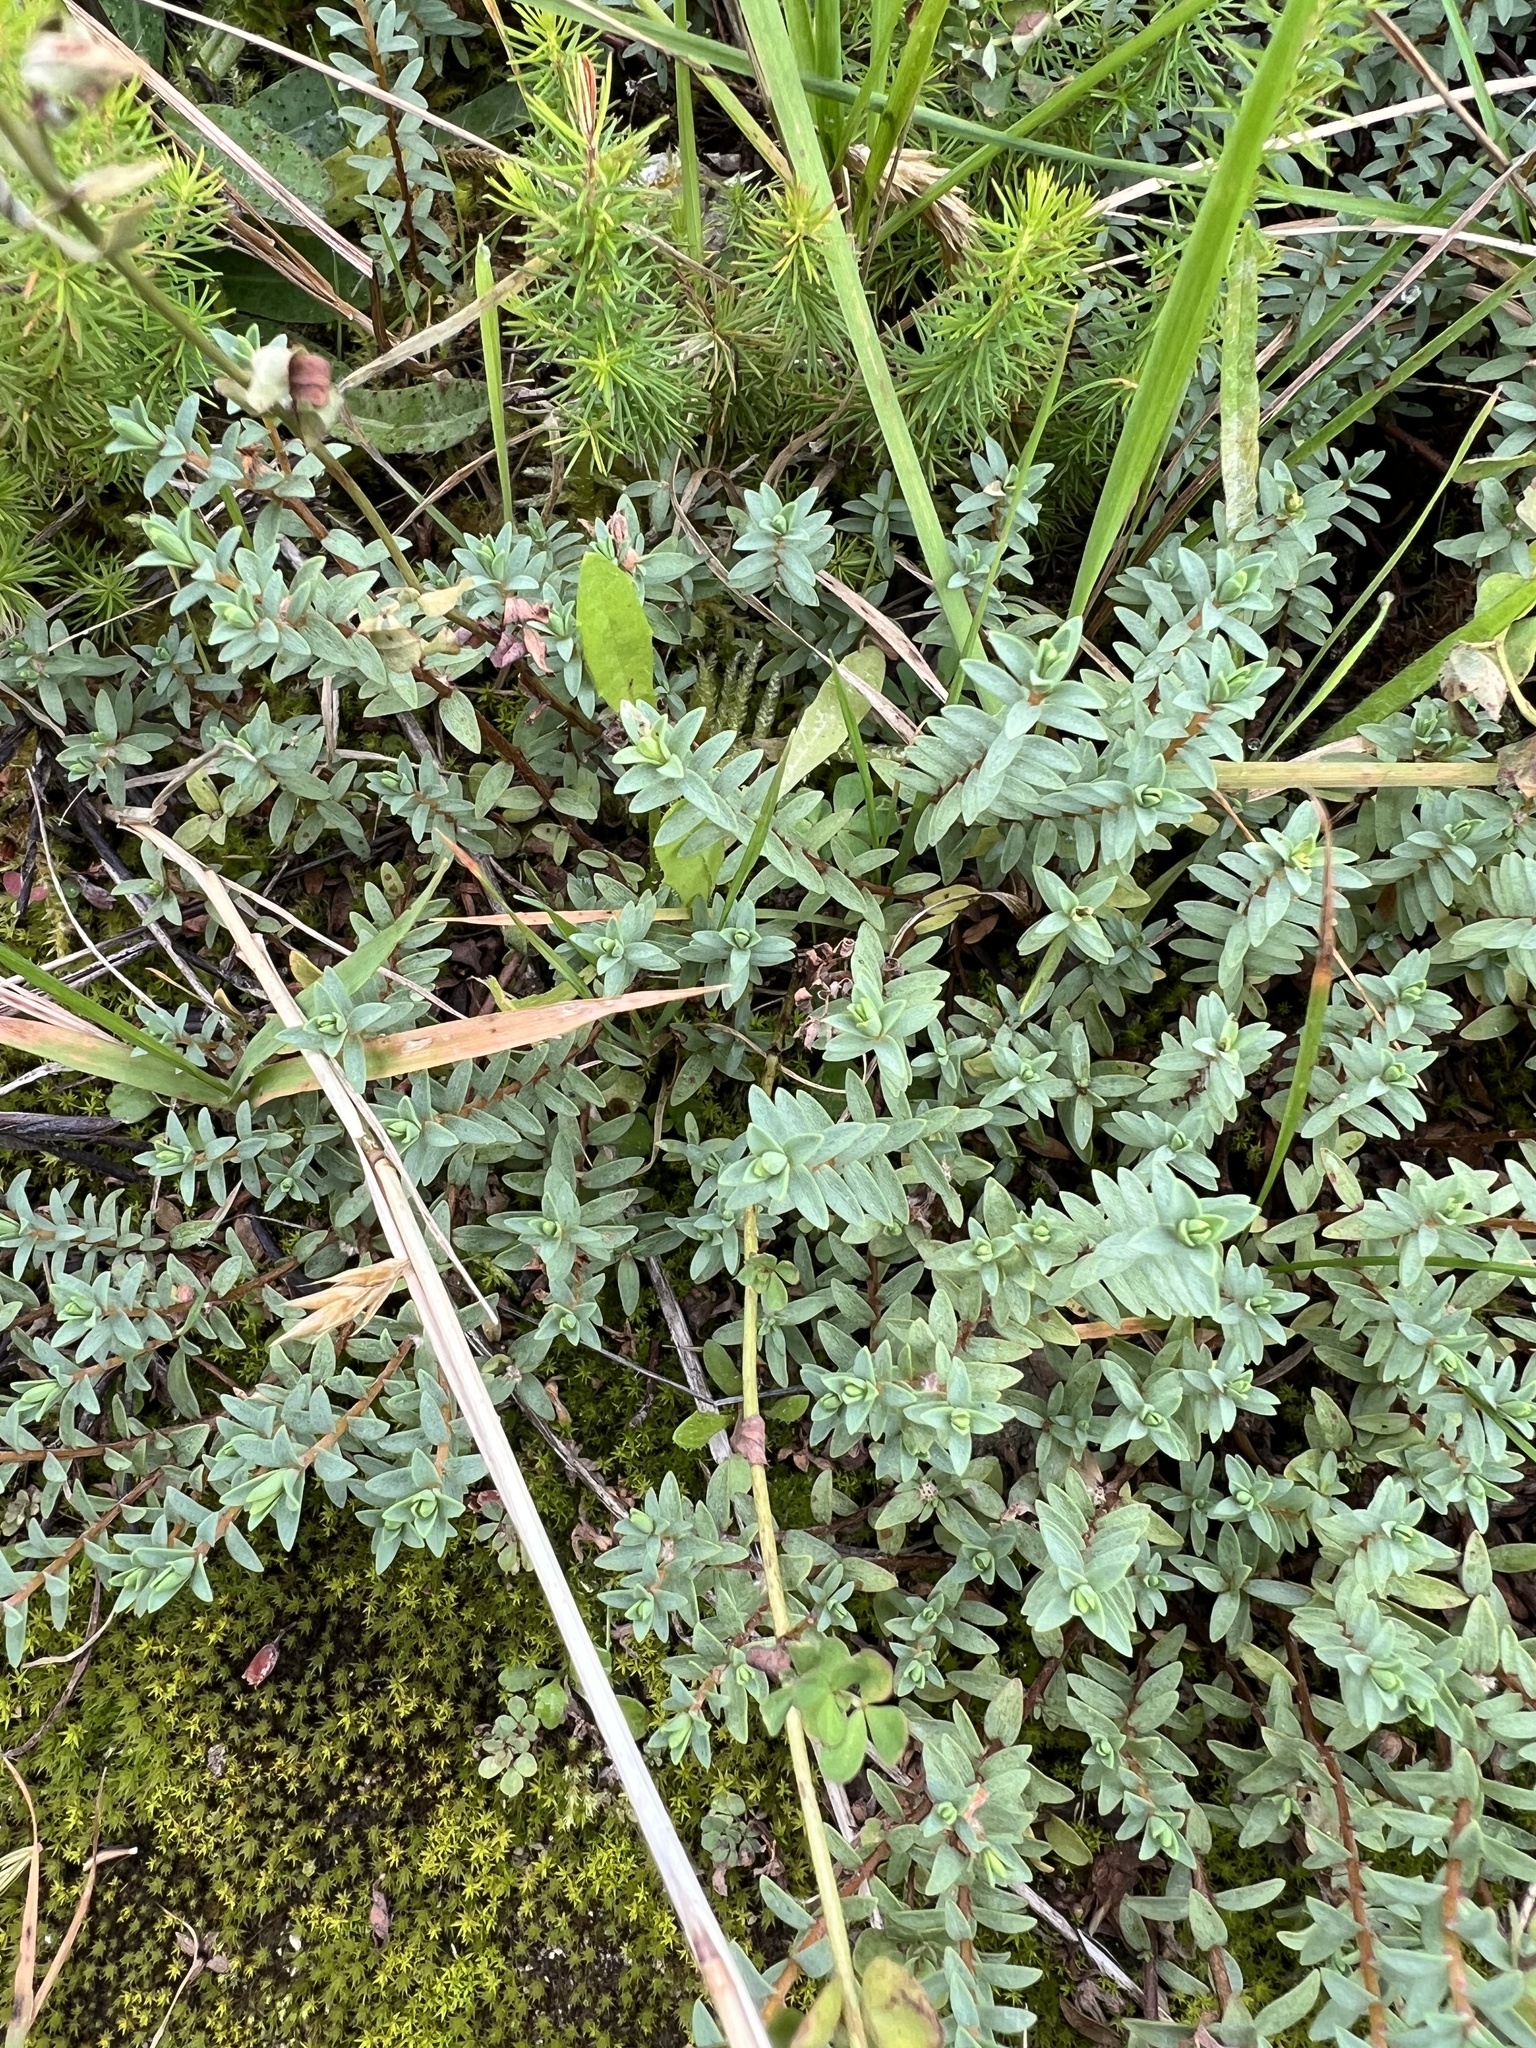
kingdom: Plantae
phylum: Tracheophyta
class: Magnoliopsida
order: Malvales
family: Thymelaeaceae
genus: Pimelea
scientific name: Pimelea prostrata
